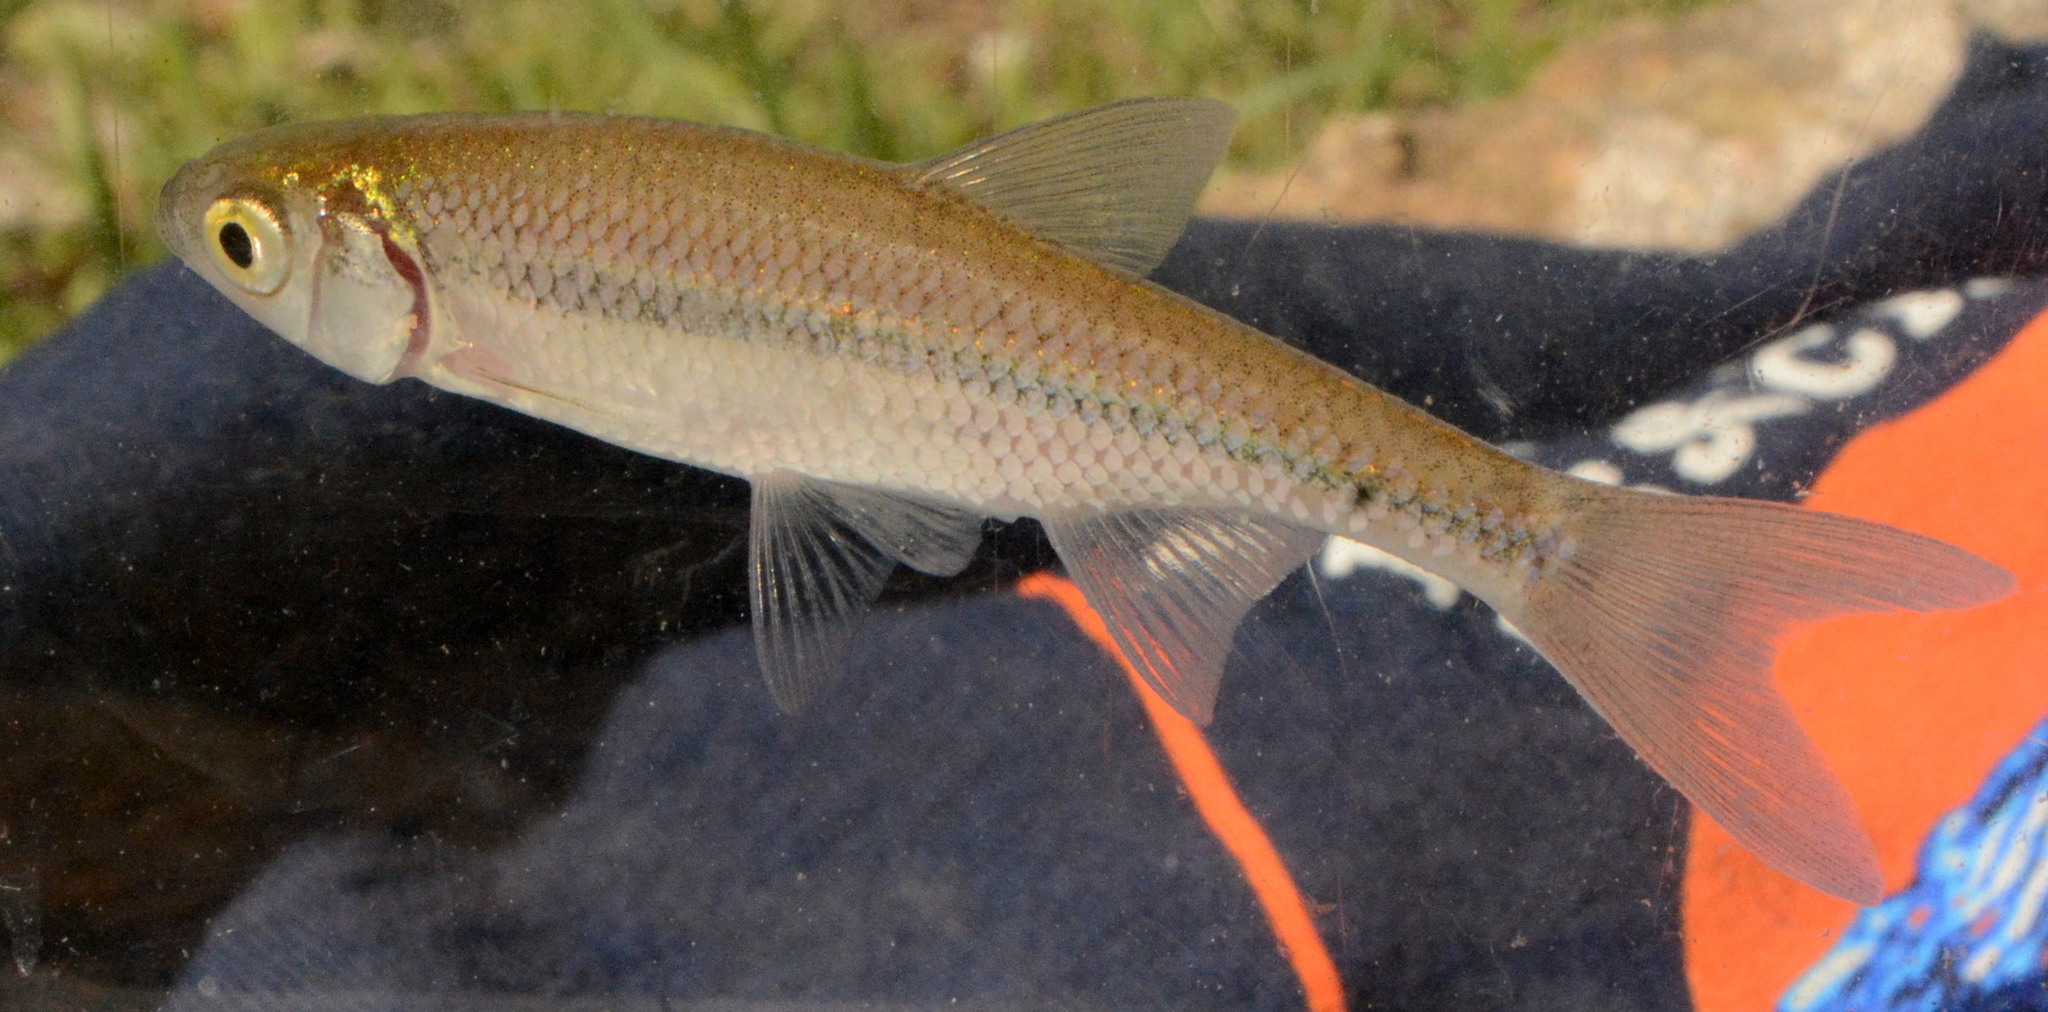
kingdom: Animalia
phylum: Chordata
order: Cypriniformes
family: Cyprinidae
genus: Notemigonus
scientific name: Notemigonus crysoleucas
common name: Golden shiner
